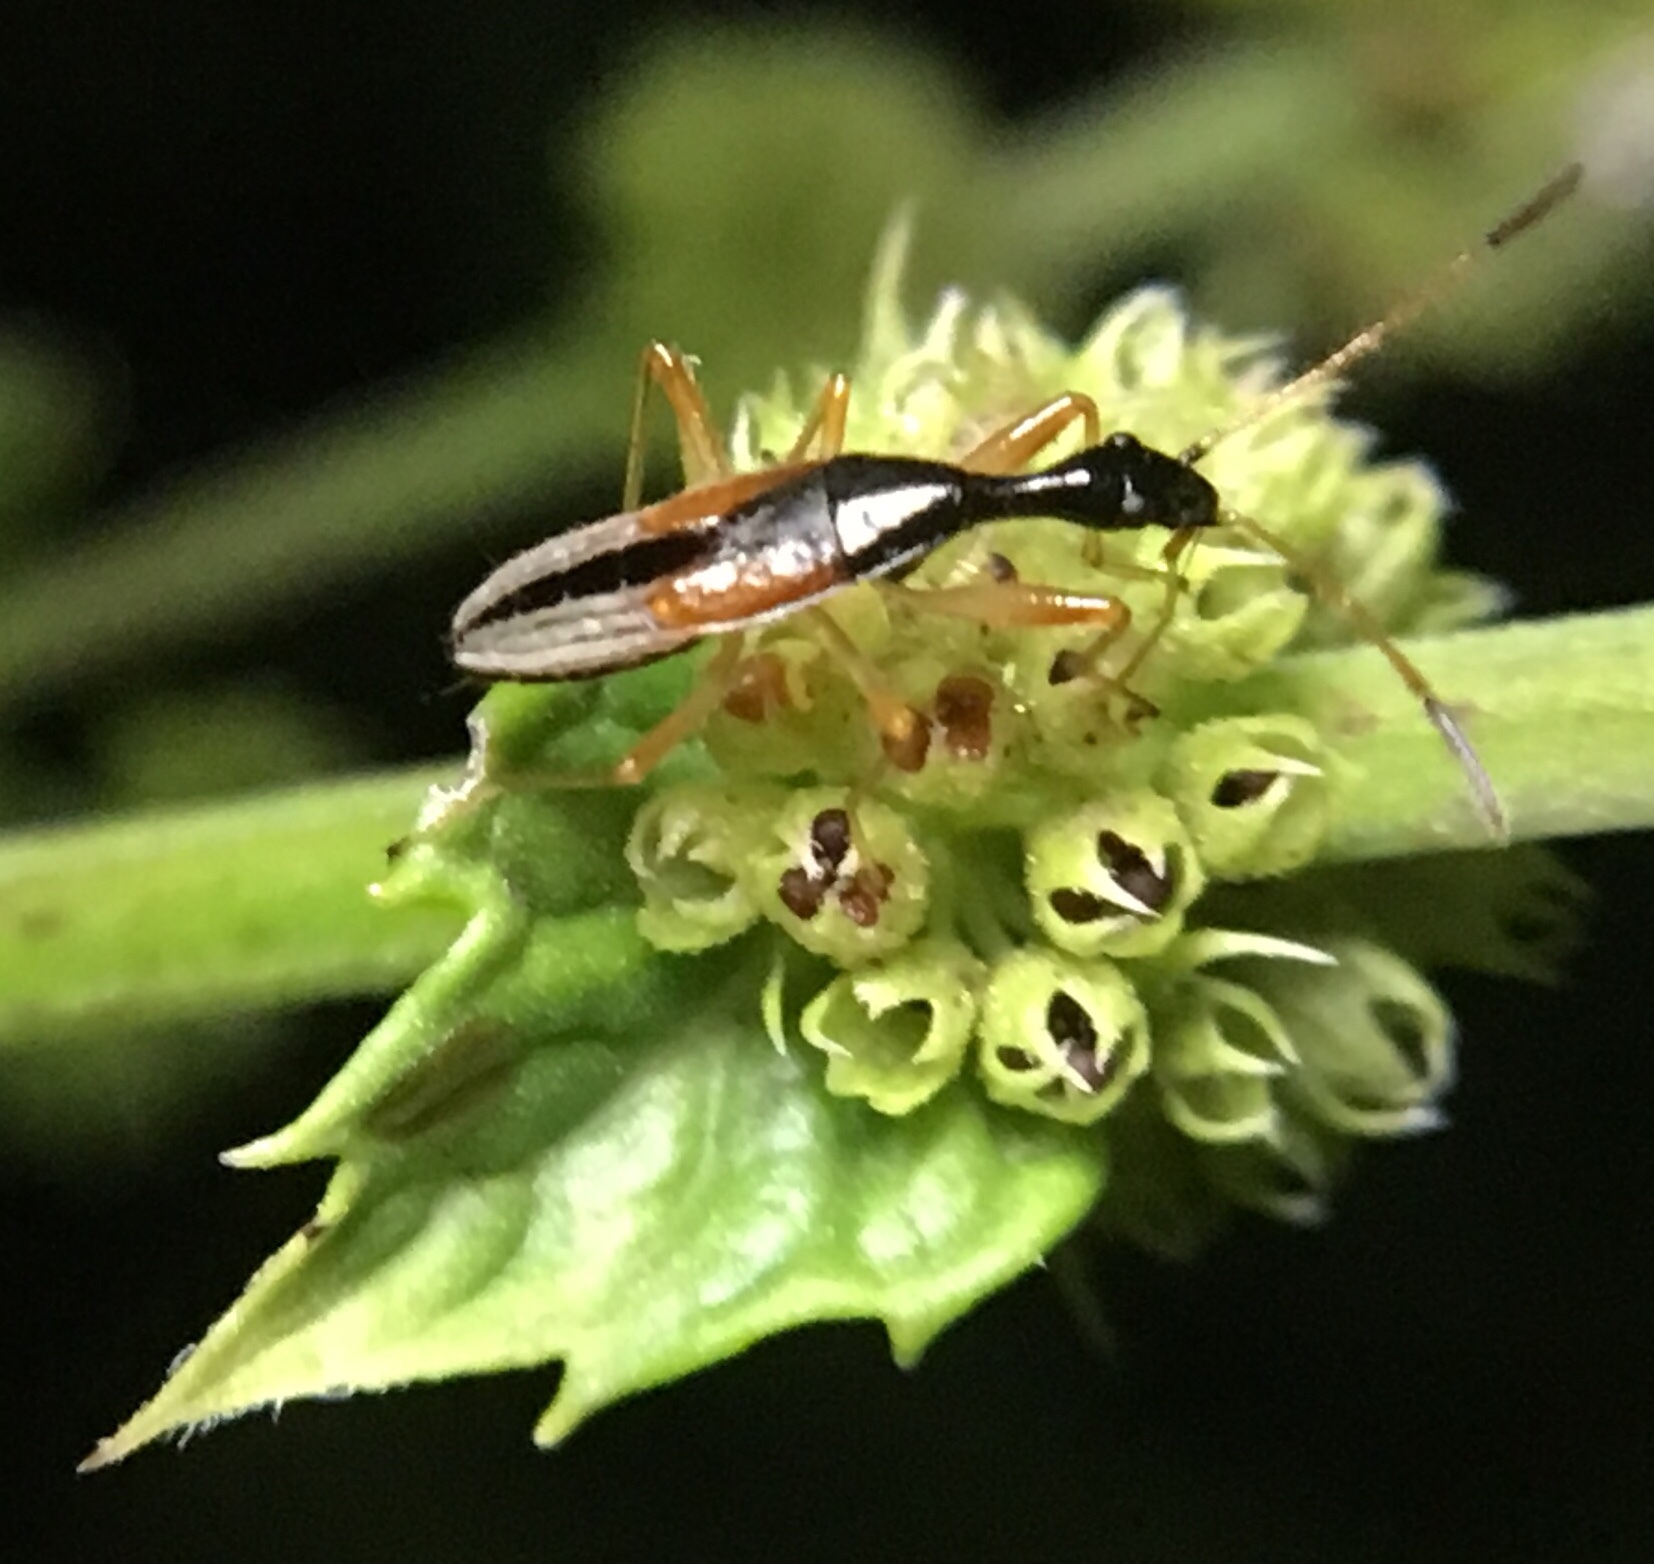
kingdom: Animalia
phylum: Arthropoda
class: Insecta
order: Hemiptera
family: Rhyparochromidae
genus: Myodocha
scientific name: Myodocha serripes
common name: Long-necked seed bug
